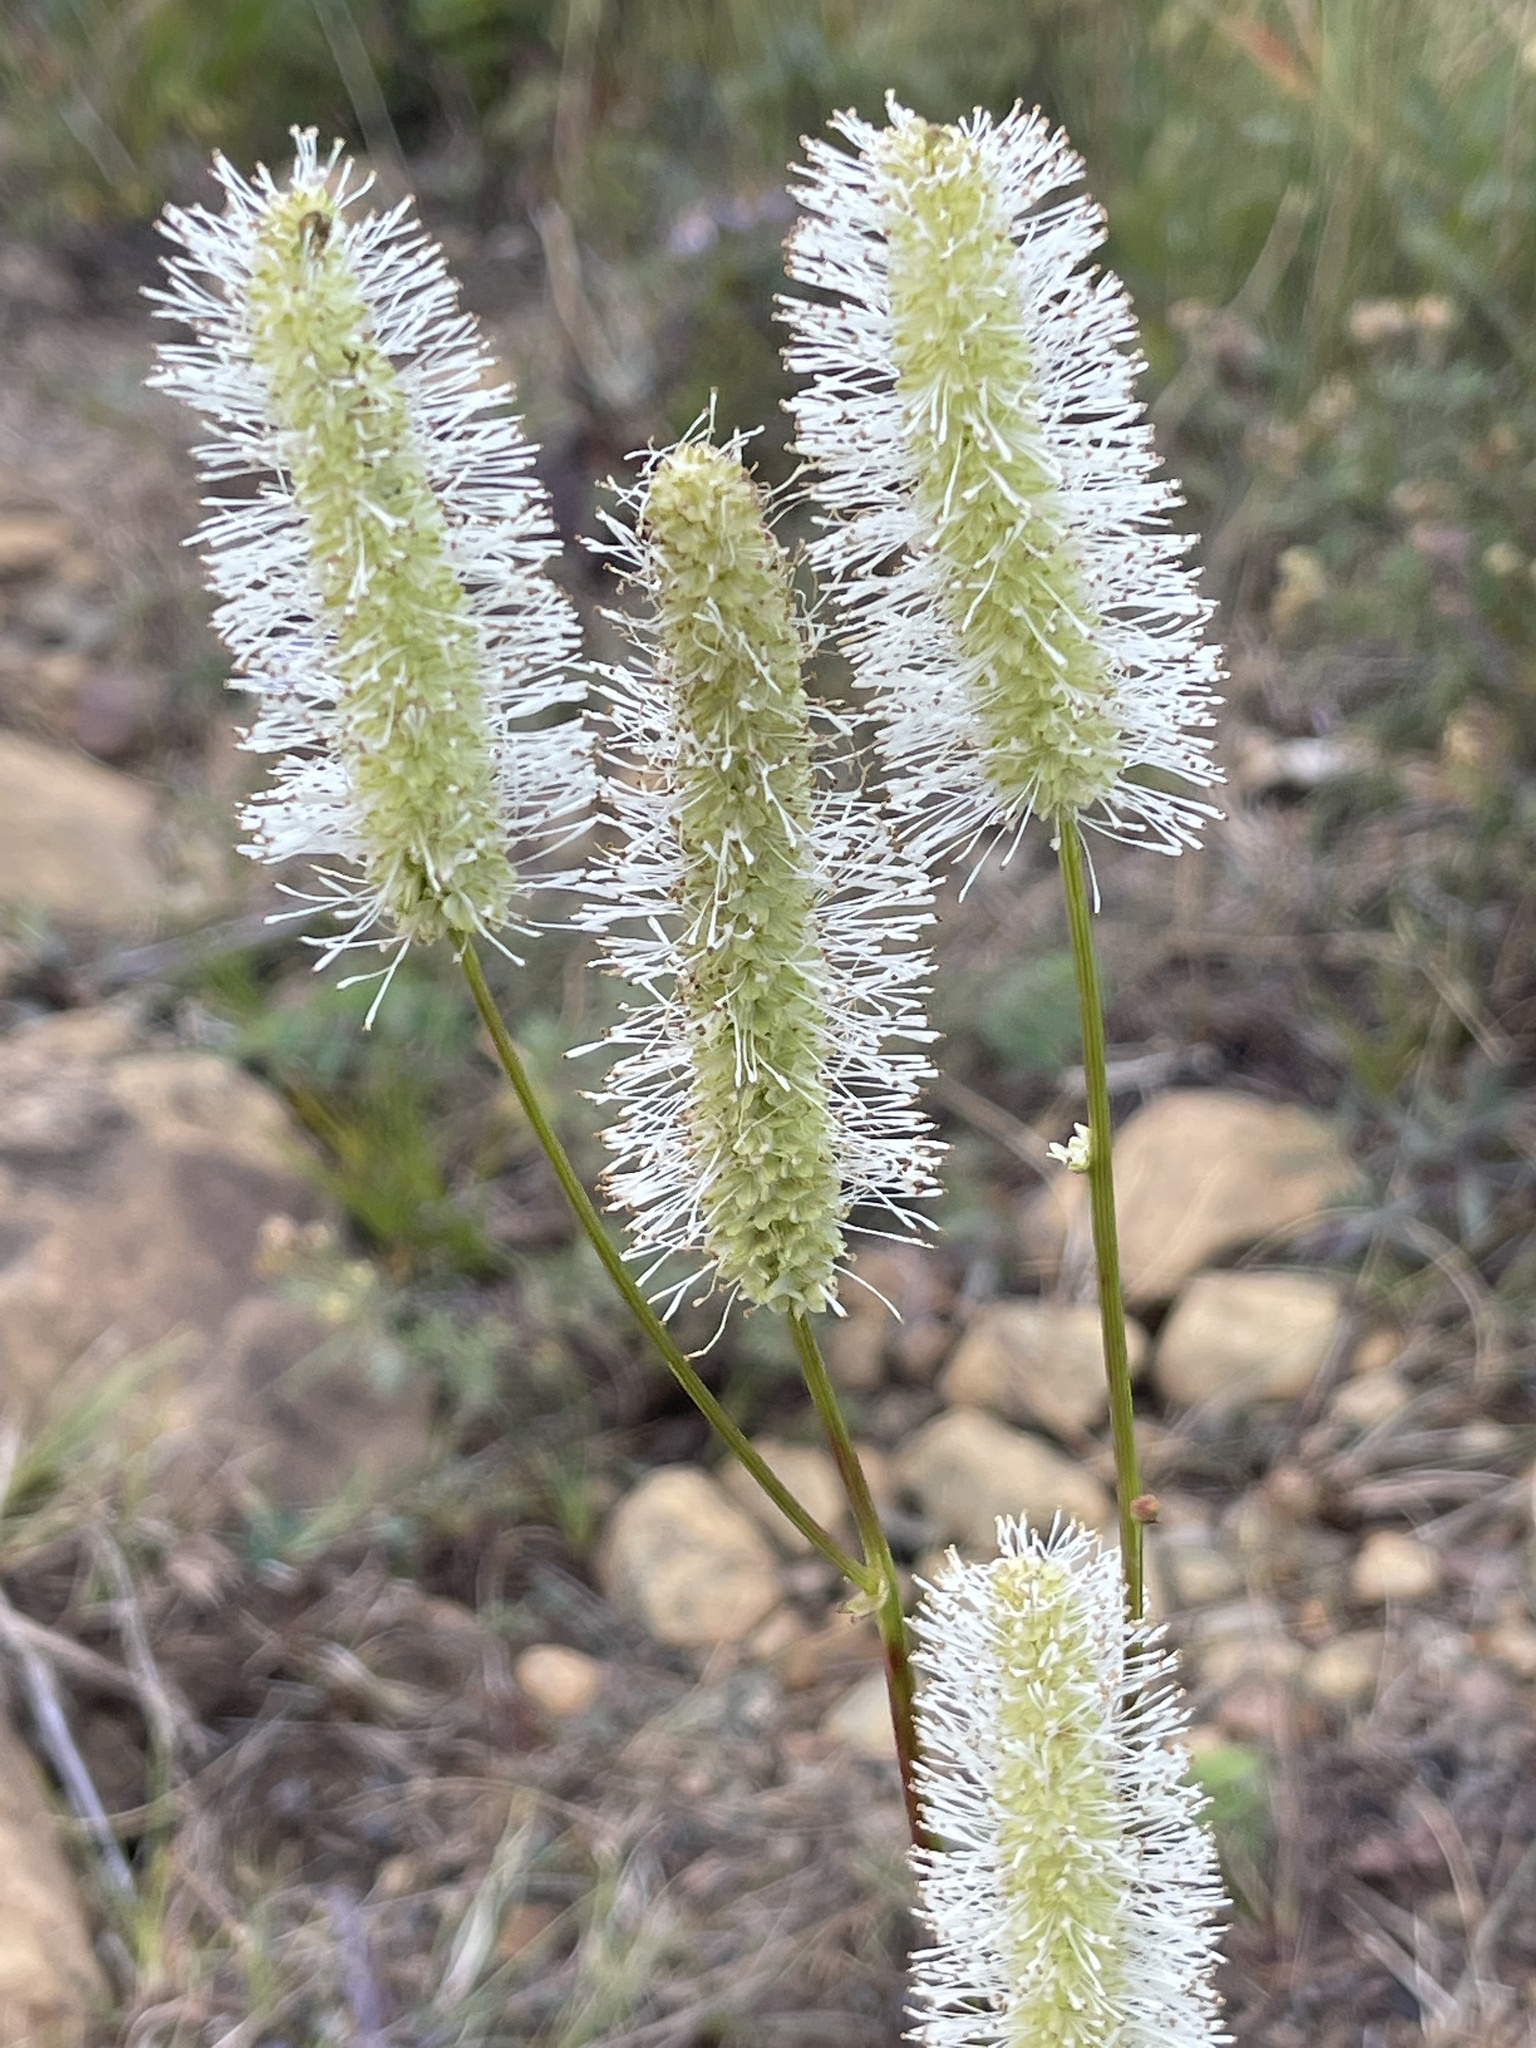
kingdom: Plantae
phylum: Tracheophyta
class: Magnoliopsida
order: Rosales
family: Rosaceae
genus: Sanguisorba
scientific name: Sanguisorba canadensis
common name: White burnet
